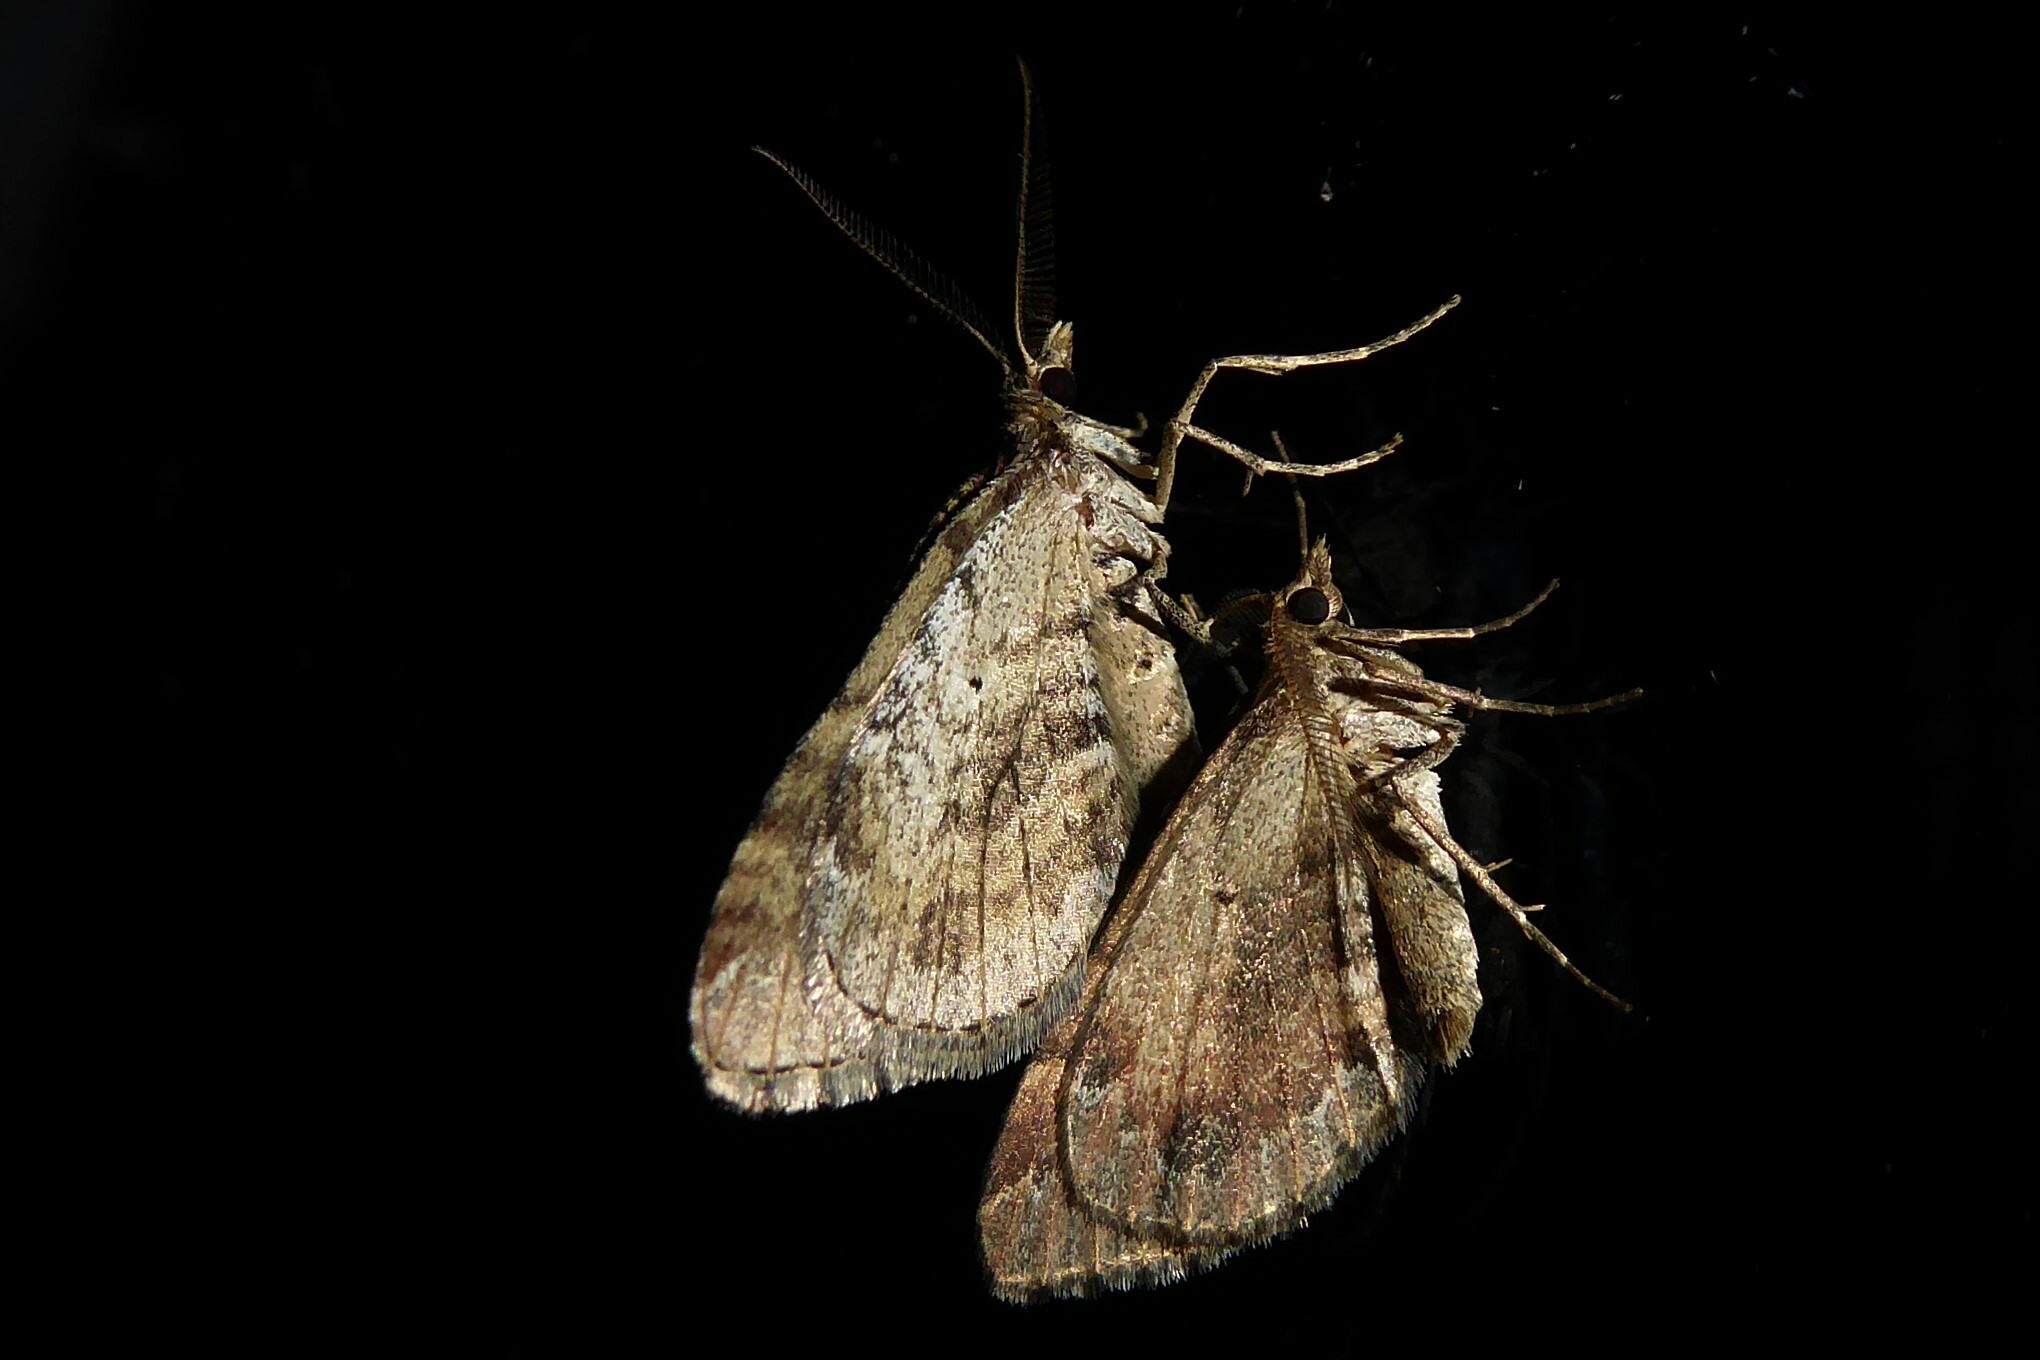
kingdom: Animalia
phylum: Arthropoda
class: Insecta
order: Lepidoptera
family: Geometridae
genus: Asaphodes
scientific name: Asaphodes aegrota
